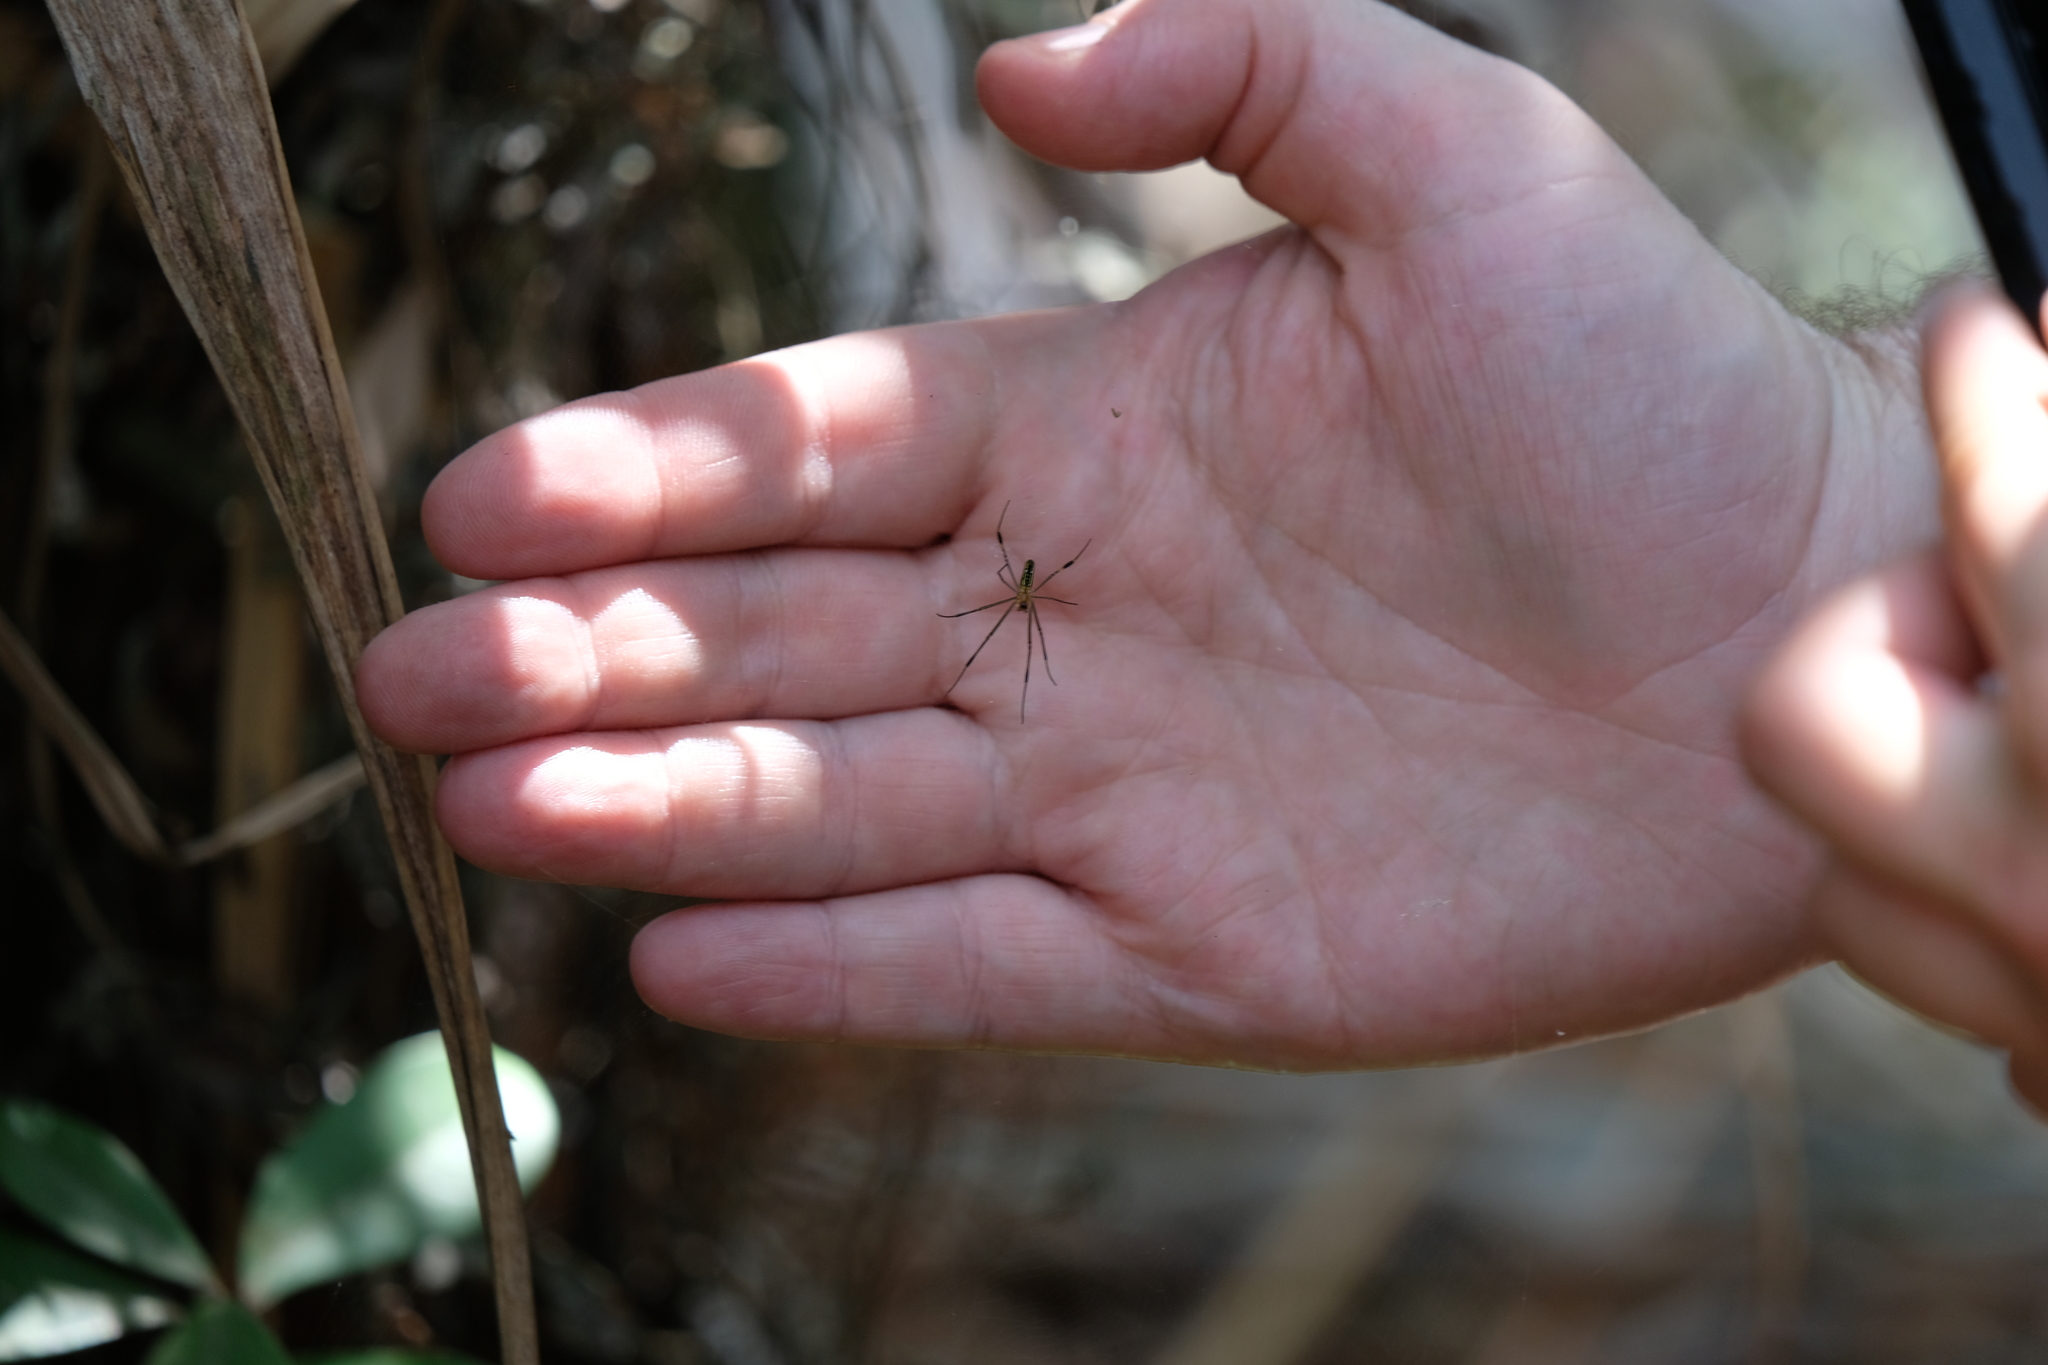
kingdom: Animalia
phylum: Arthropoda
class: Arachnida
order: Araneae
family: Araneidae
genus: Nephila
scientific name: Nephila pilipes
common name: Giant golden orb weaver
